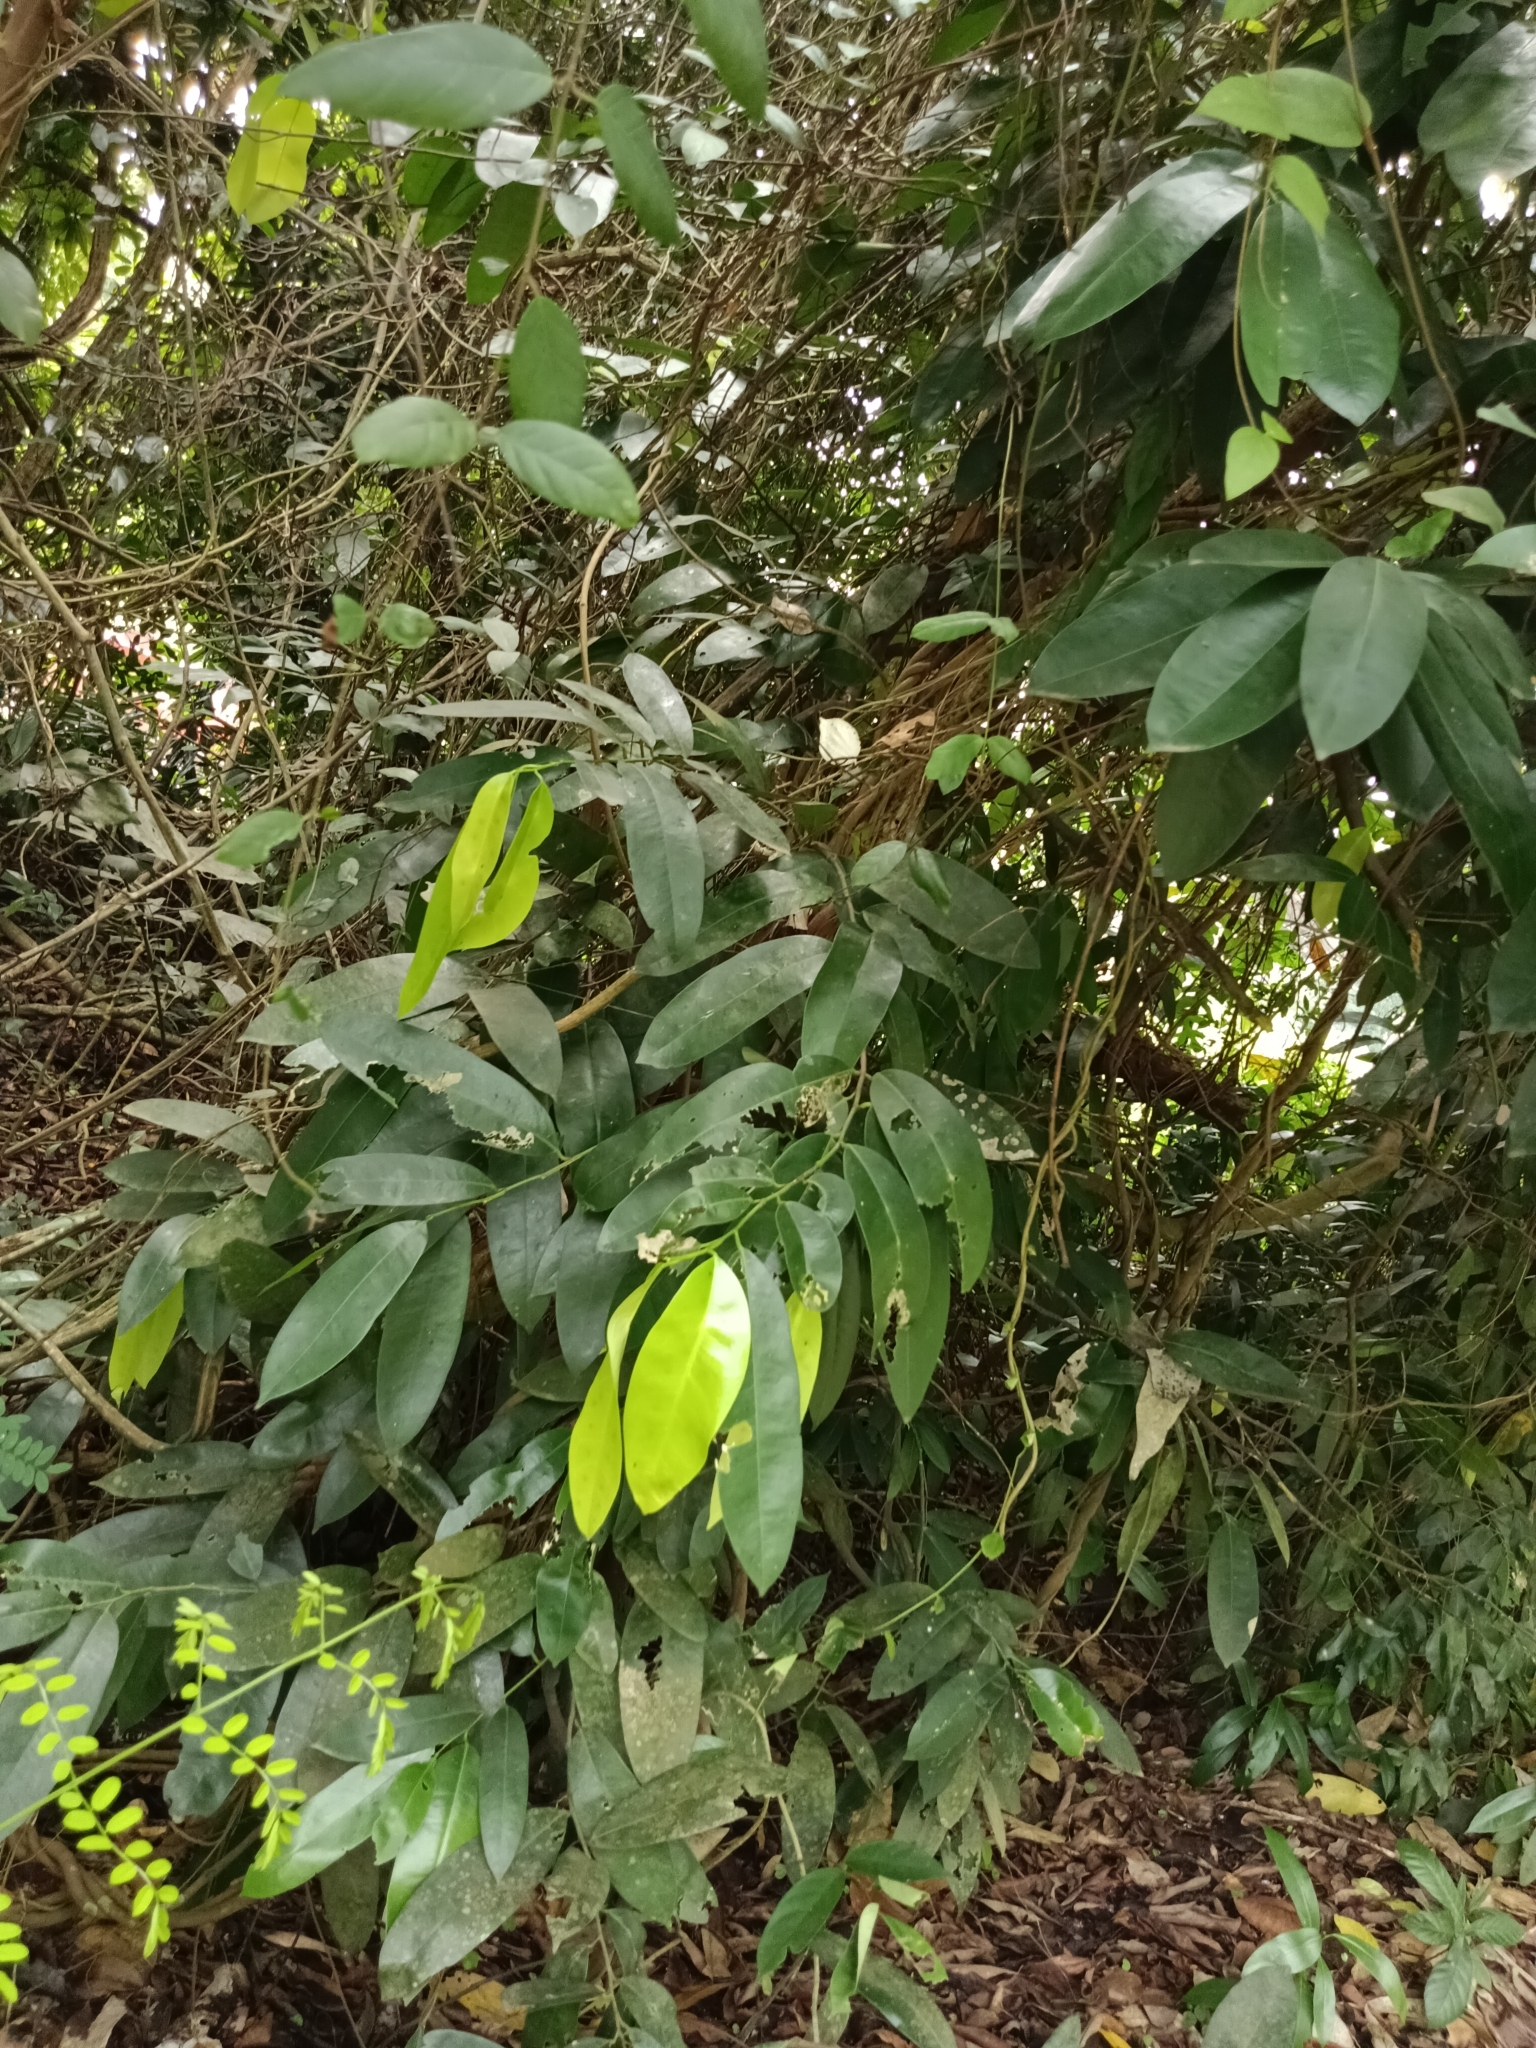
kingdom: Plantae
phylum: Tracheophyta
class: Magnoliopsida
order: Sapindales
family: Simaroubaceae
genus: Samadera
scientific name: Samadera indica
